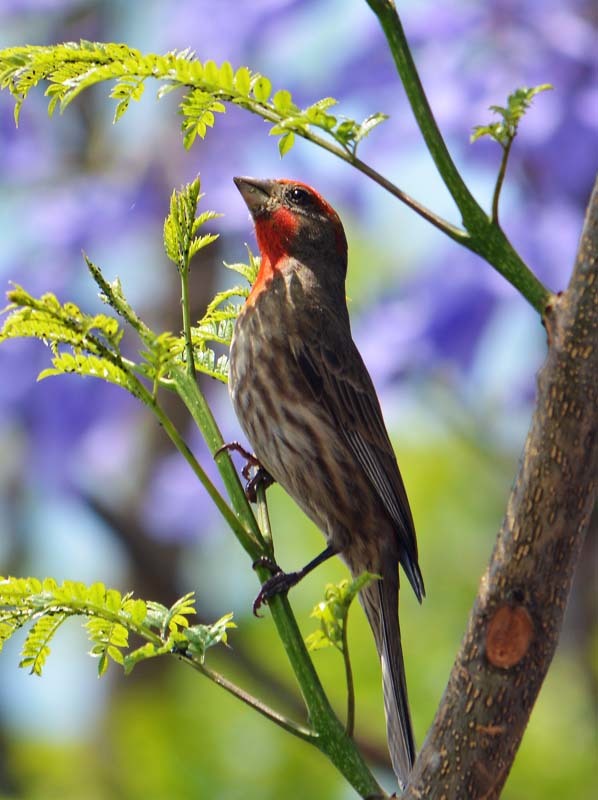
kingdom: Animalia
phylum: Chordata
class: Aves
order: Passeriformes
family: Fringillidae
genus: Haemorhous
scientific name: Haemorhous mexicanus
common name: House finch
